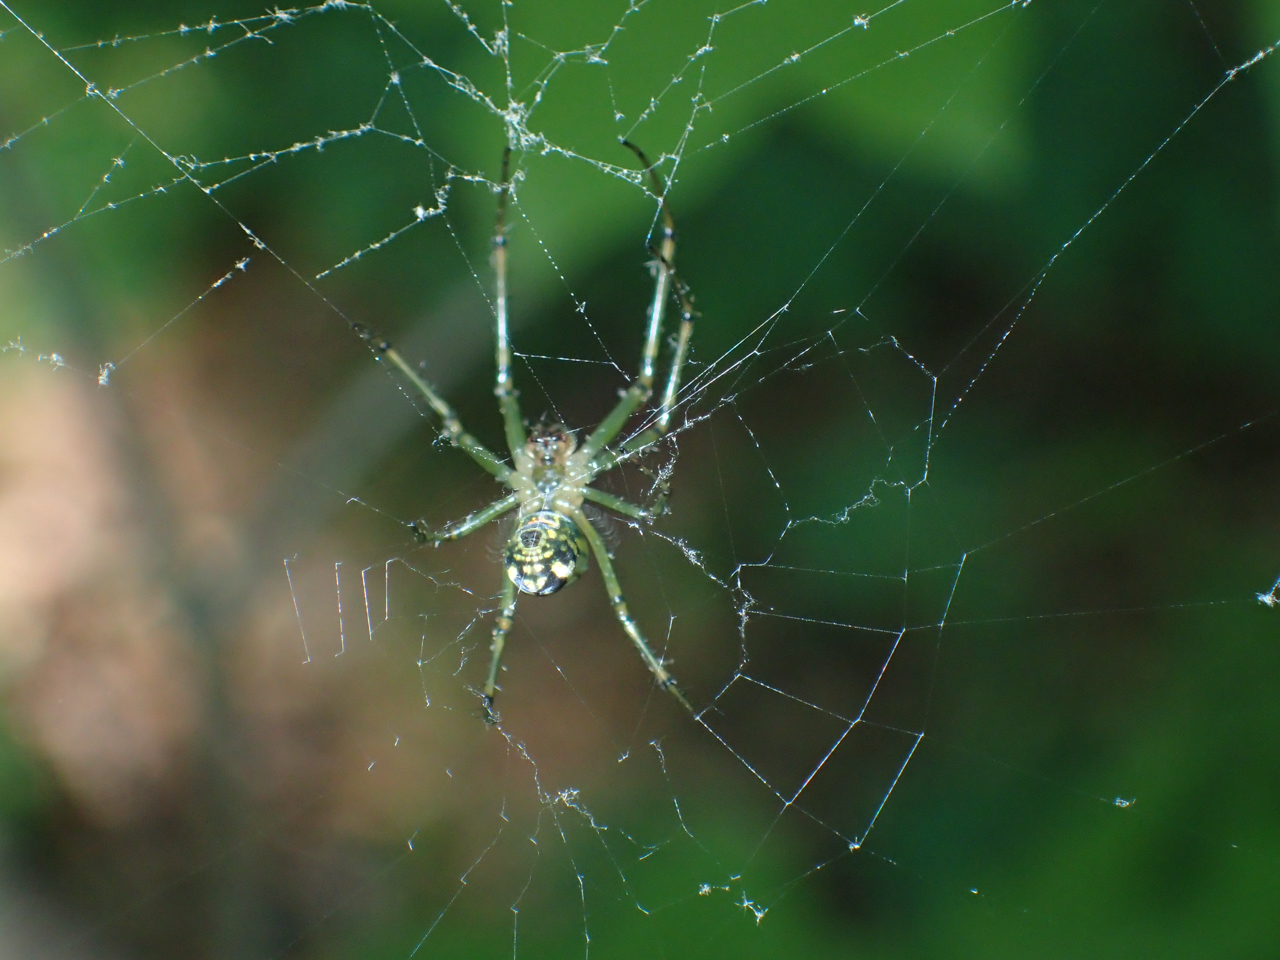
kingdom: Animalia
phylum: Arthropoda
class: Arachnida
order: Araneae
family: Tetragnathidae
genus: Leucauge
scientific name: Leucauge venusta
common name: Longjawed orb weavers
